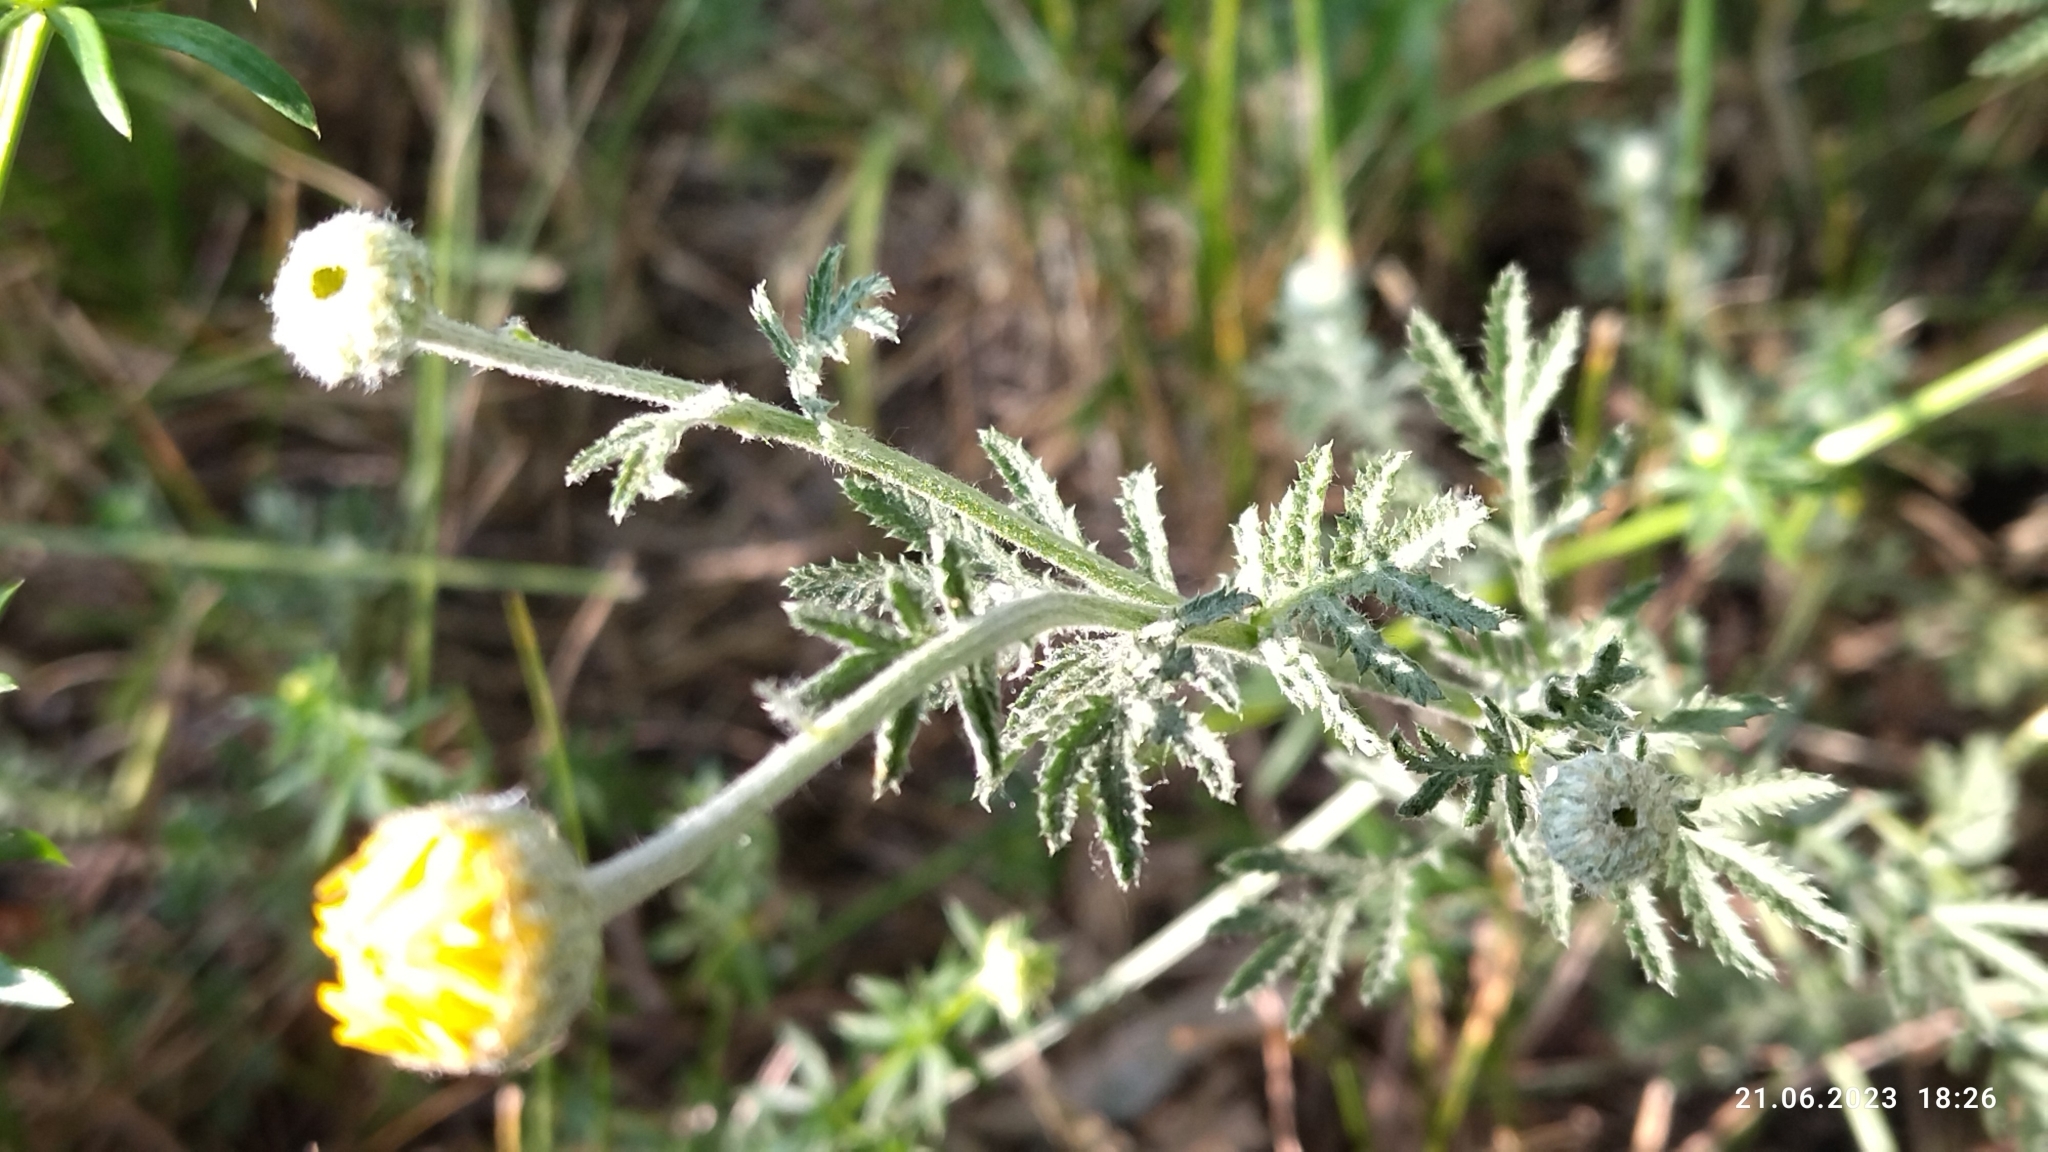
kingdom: Plantae
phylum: Tracheophyta
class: Magnoliopsida
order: Asterales
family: Asteraceae
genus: Cota
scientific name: Cota tinctoria
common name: Golden chamomile
